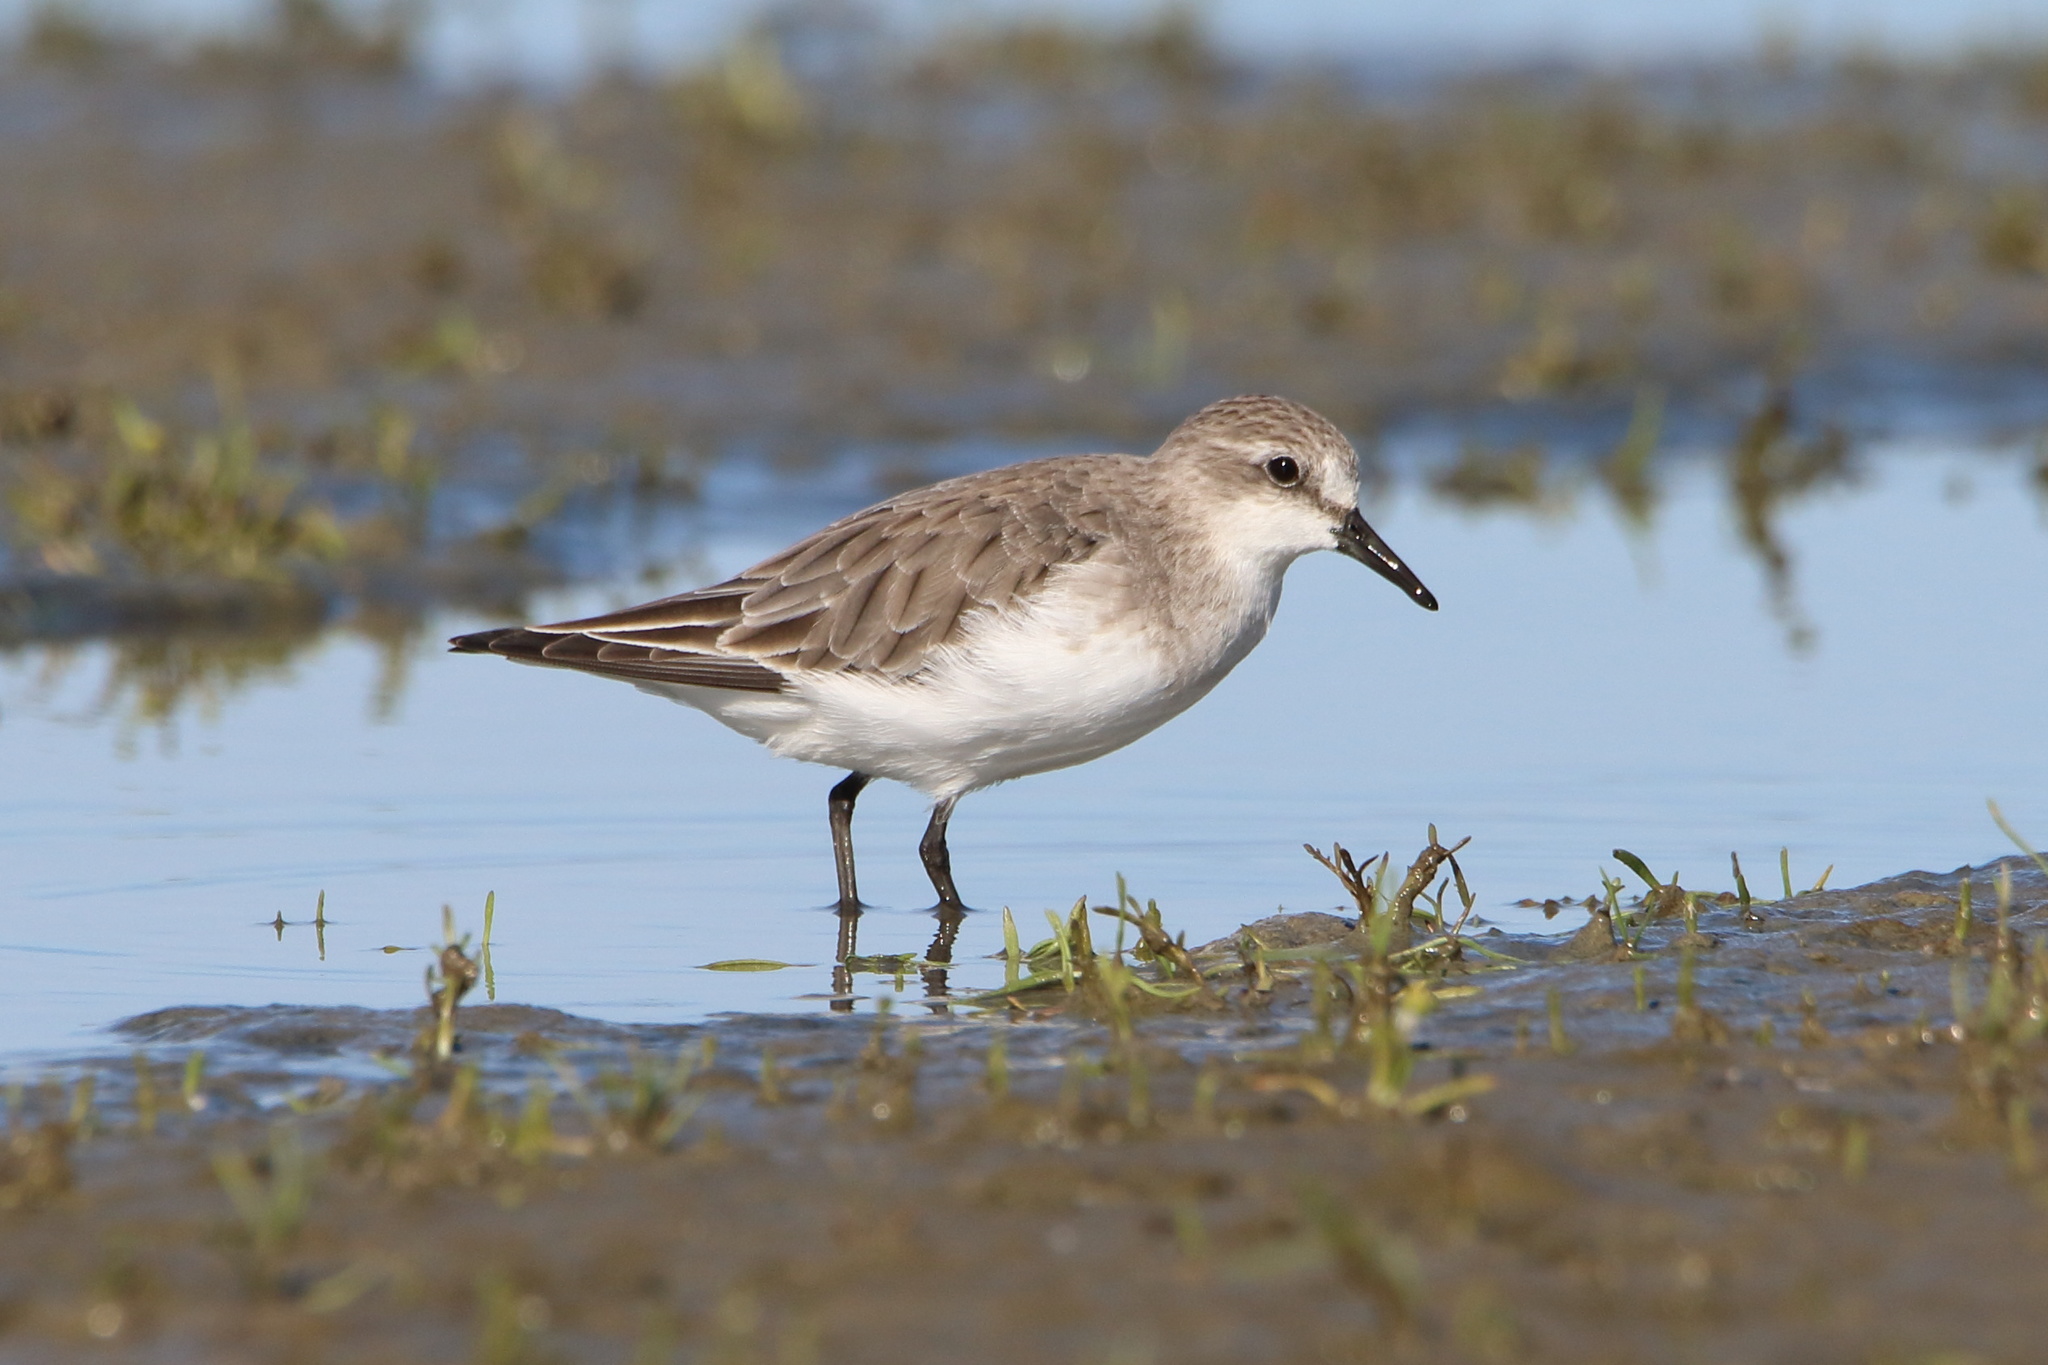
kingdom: Animalia
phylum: Chordata
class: Aves
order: Charadriiformes
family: Scolopacidae
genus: Calidris
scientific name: Calidris ruficollis
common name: Red-necked stint
